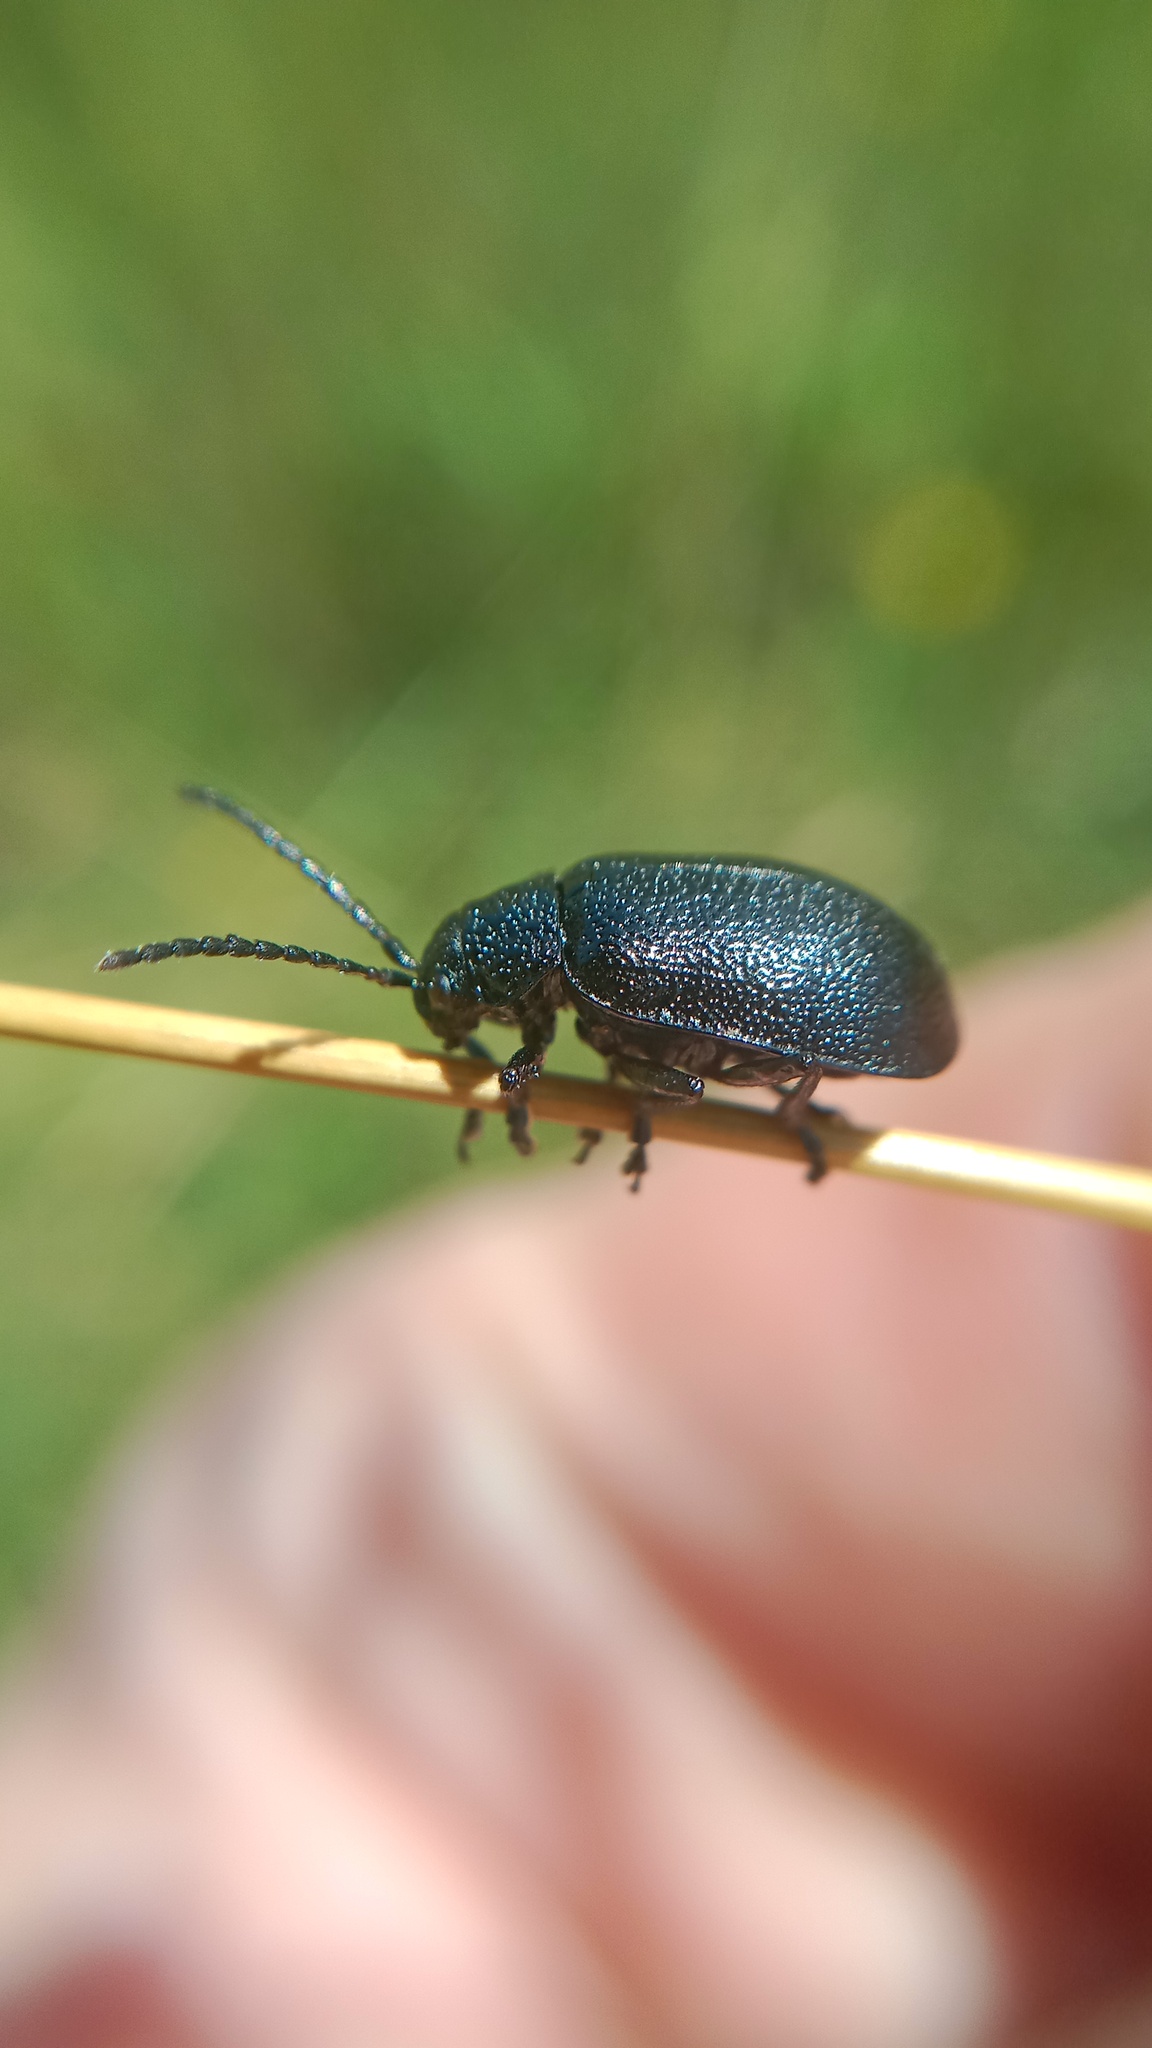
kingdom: Animalia
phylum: Arthropoda
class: Insecta
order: Coleoptera
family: Chrysomelidae
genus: Galeruca
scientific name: Galeruca tanaceti
